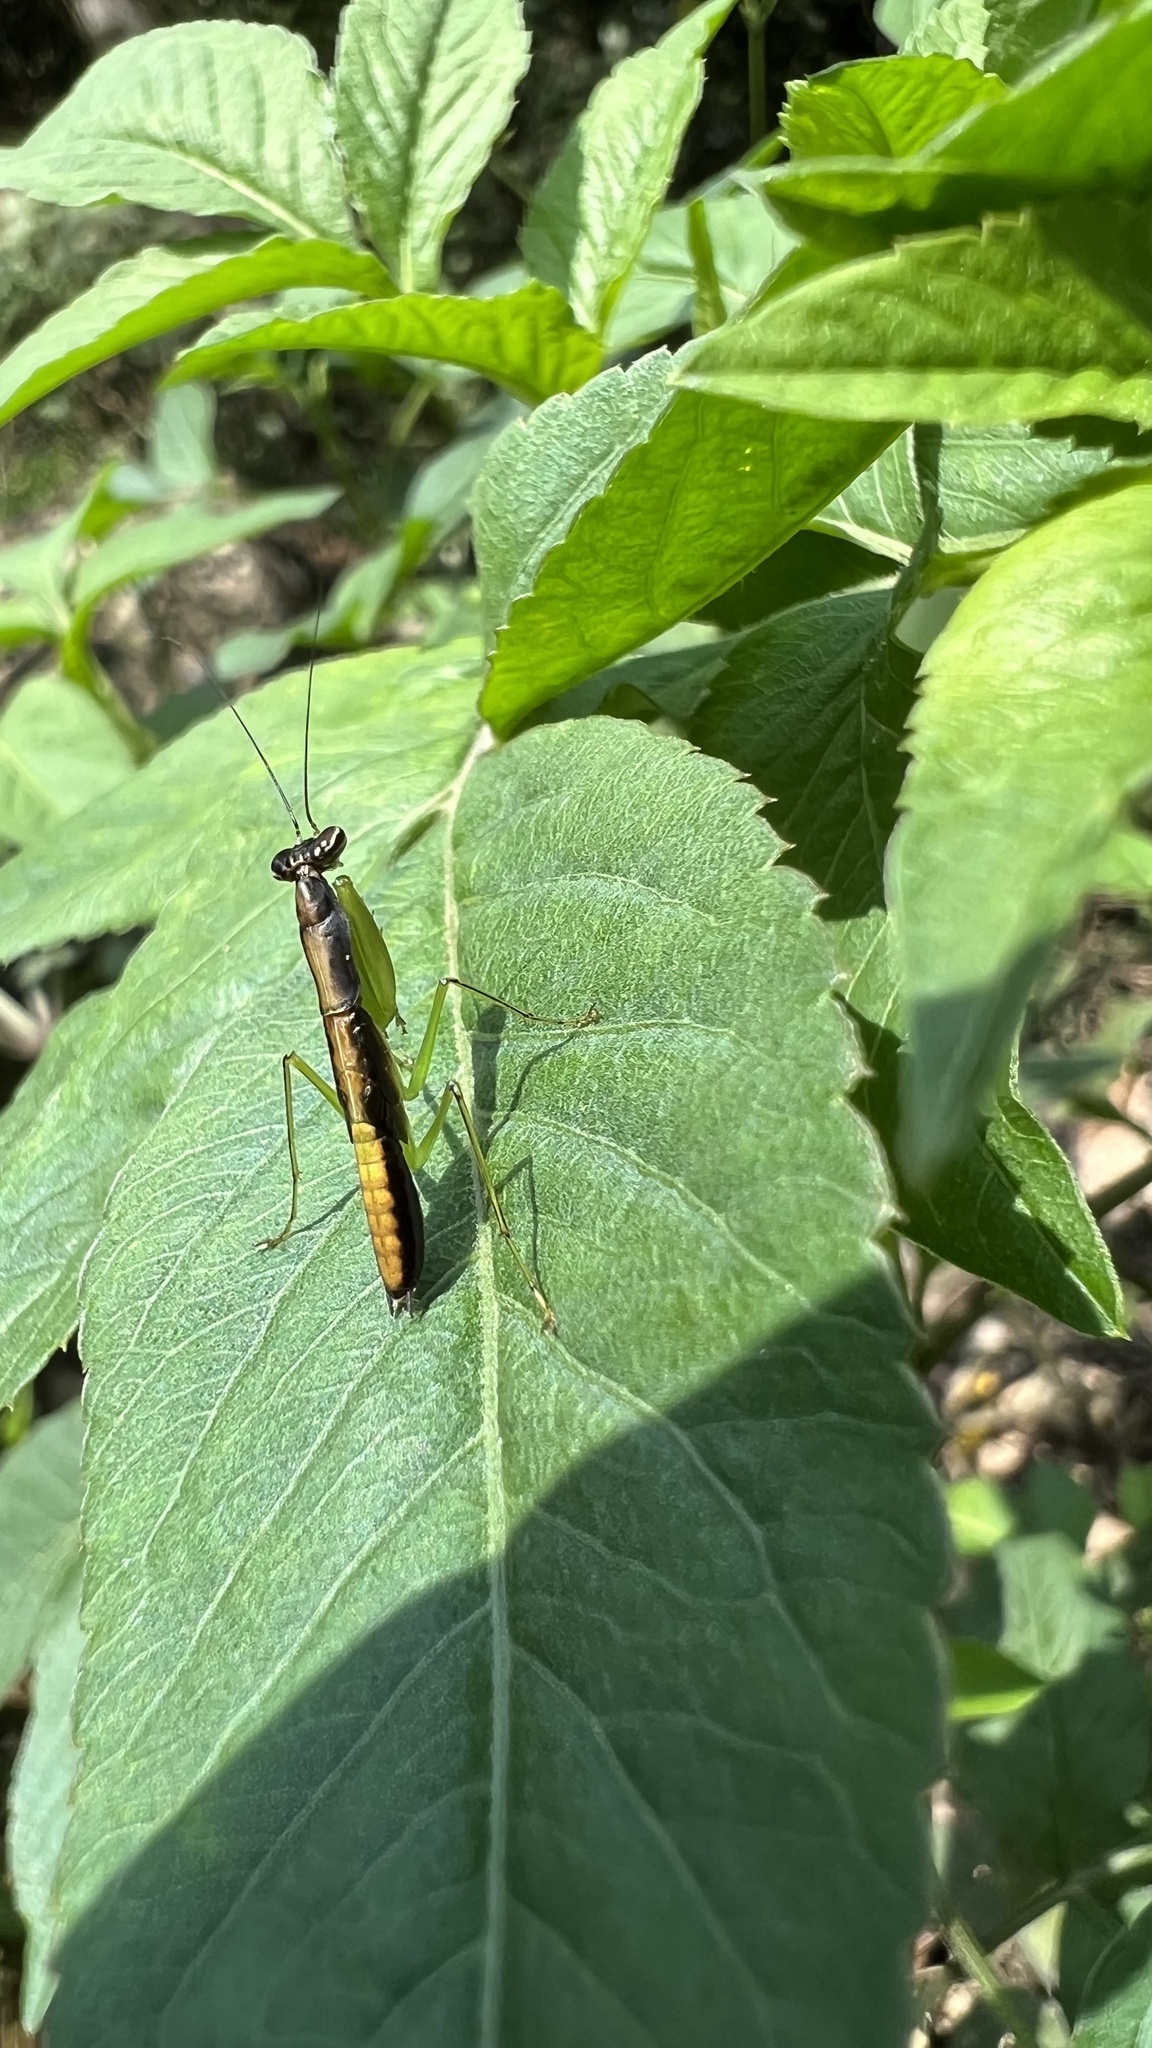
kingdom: Animalia
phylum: Arthropoda
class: Insecta
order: Mantodea
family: Hymenopodidae
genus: Odontomantis
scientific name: Odontomantis planiceps
